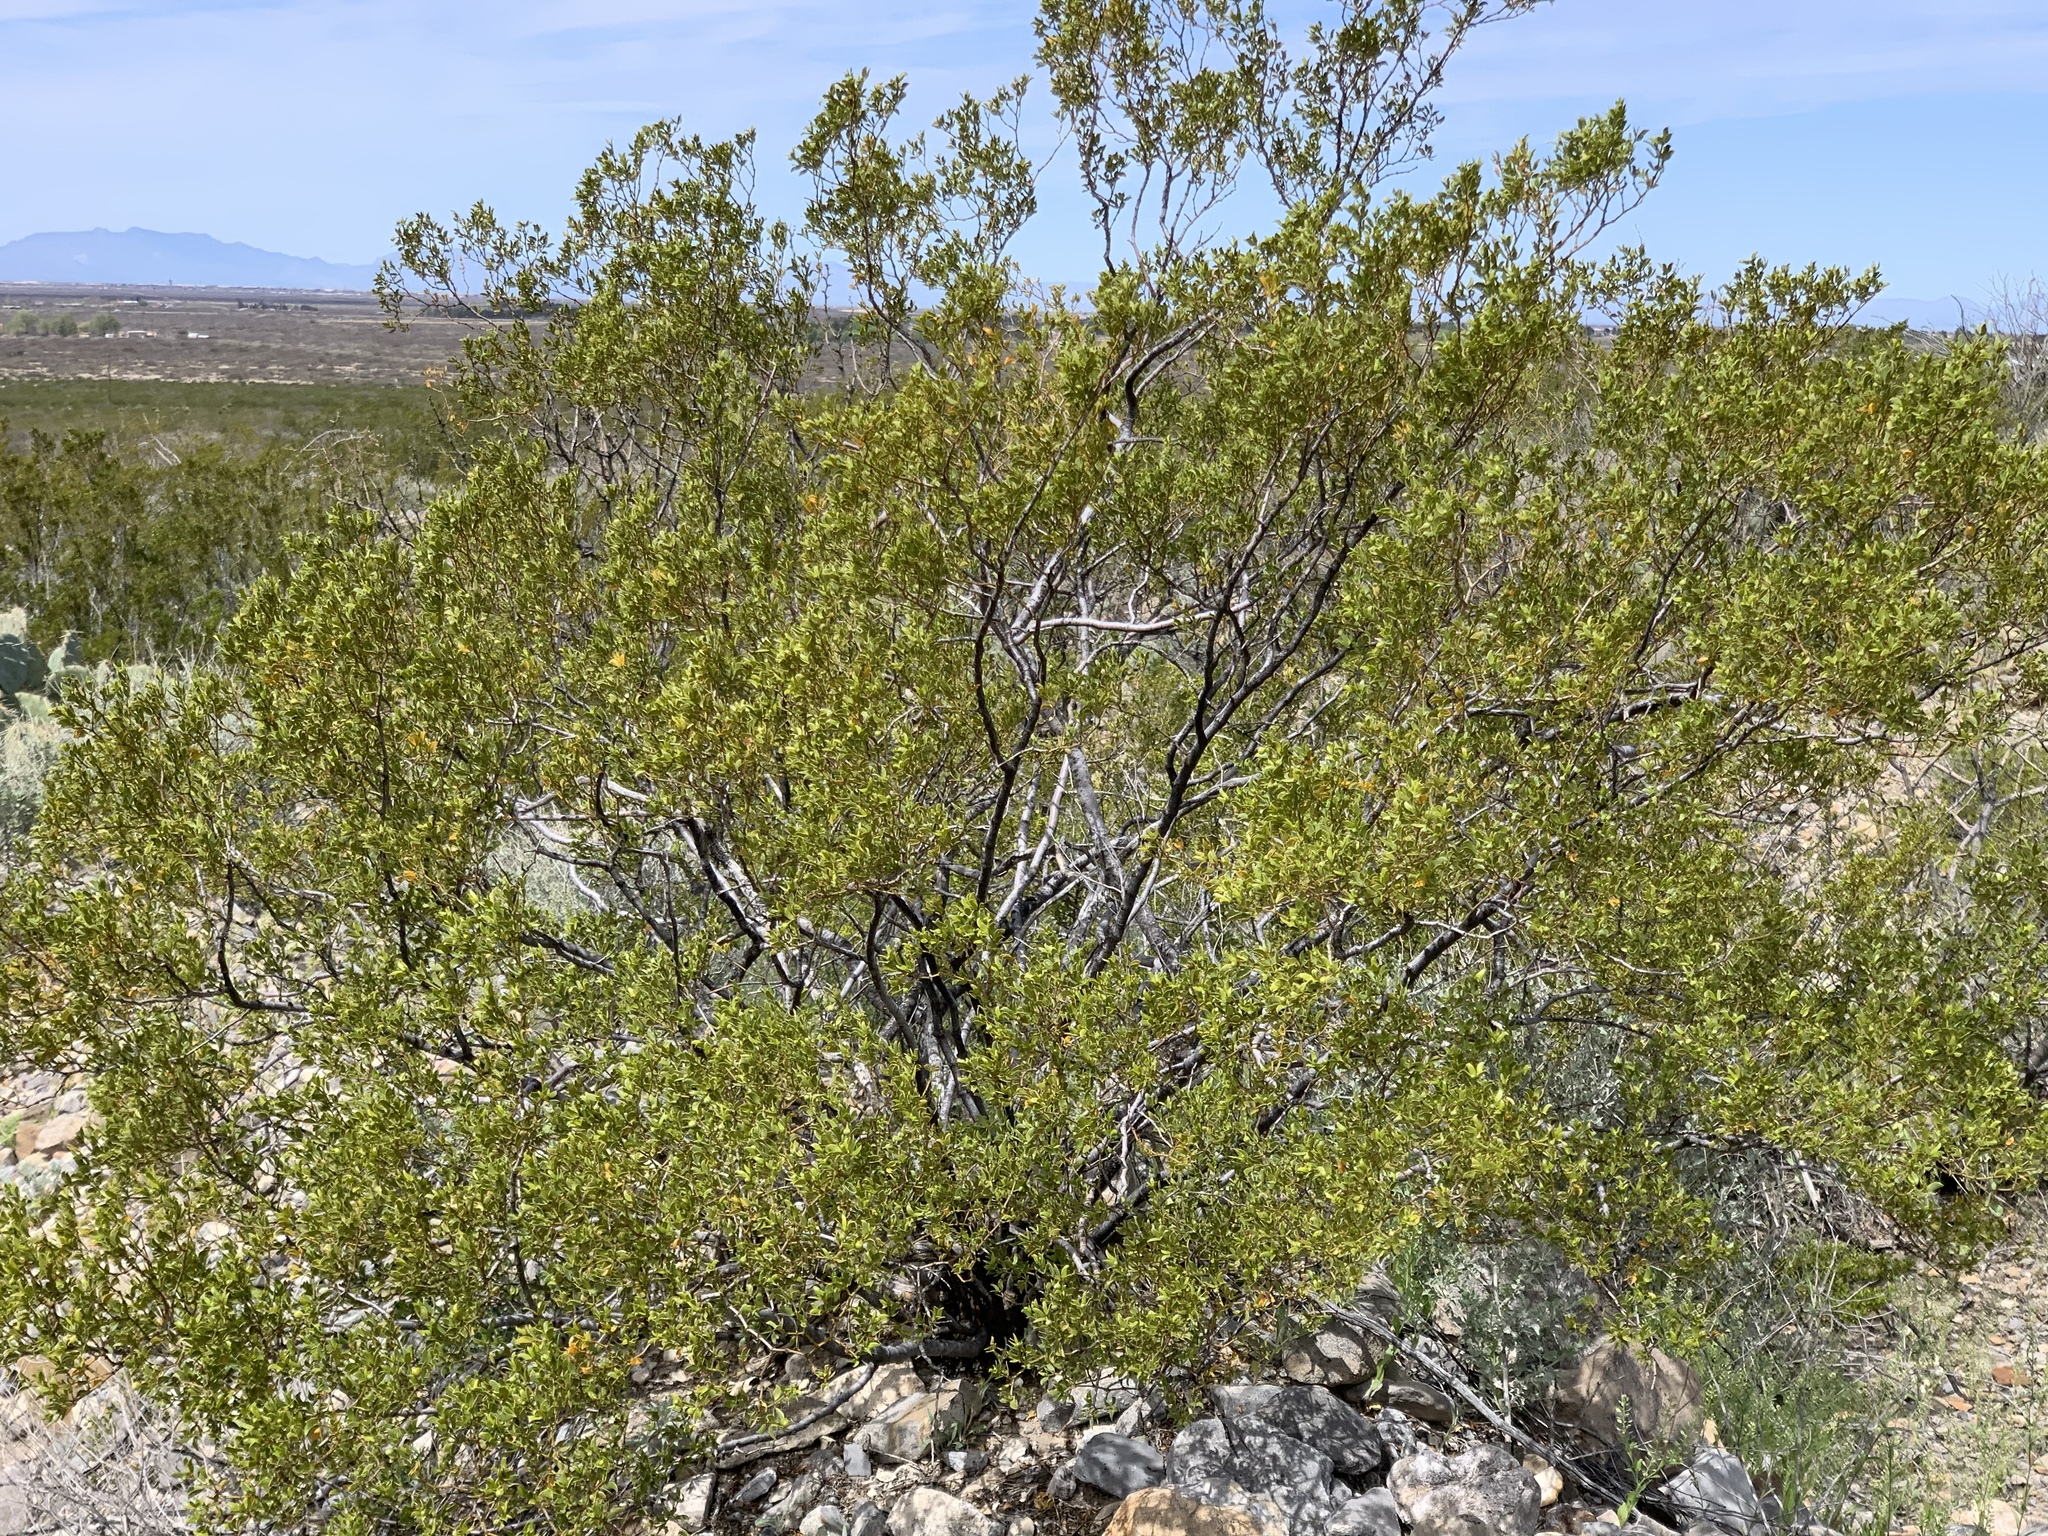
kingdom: Plantae
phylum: Tracheophyta
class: Magnoliopsida
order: Zygophyllales
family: Zygophyllaceae
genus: Larrea
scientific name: Larrea tridentata
